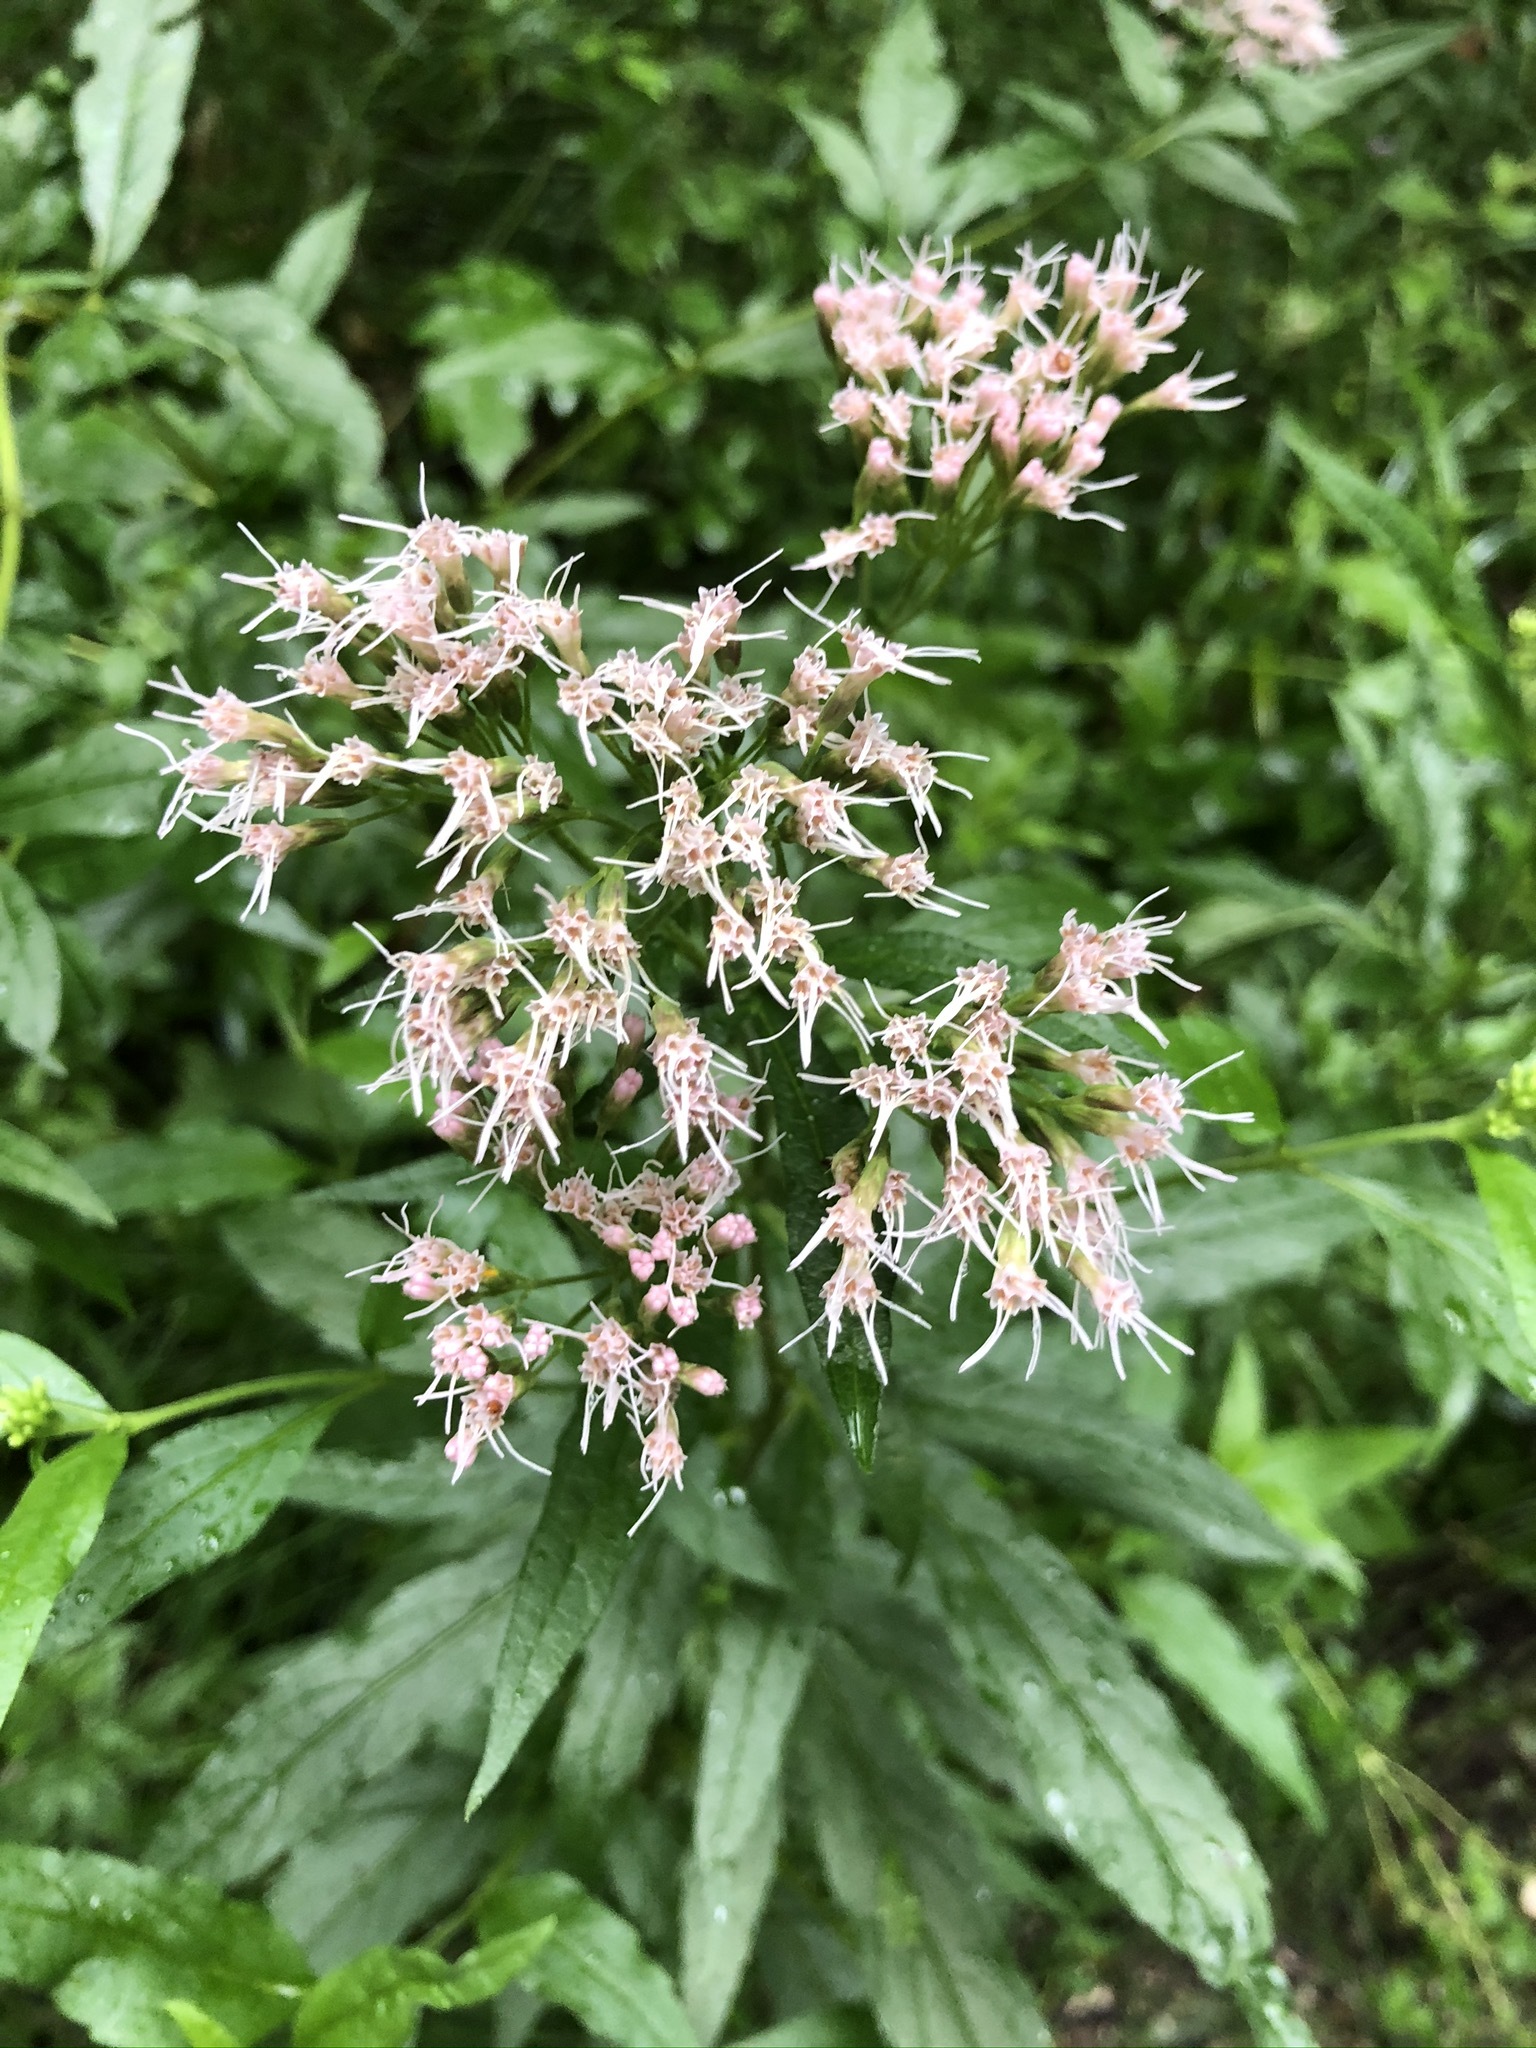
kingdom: Plantae
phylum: Tracheophyta
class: Magnoliopsida
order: Asterales
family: Asteraceae
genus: Eupatorium
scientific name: Eupatorium cannabinum
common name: Hemp-agrimony
